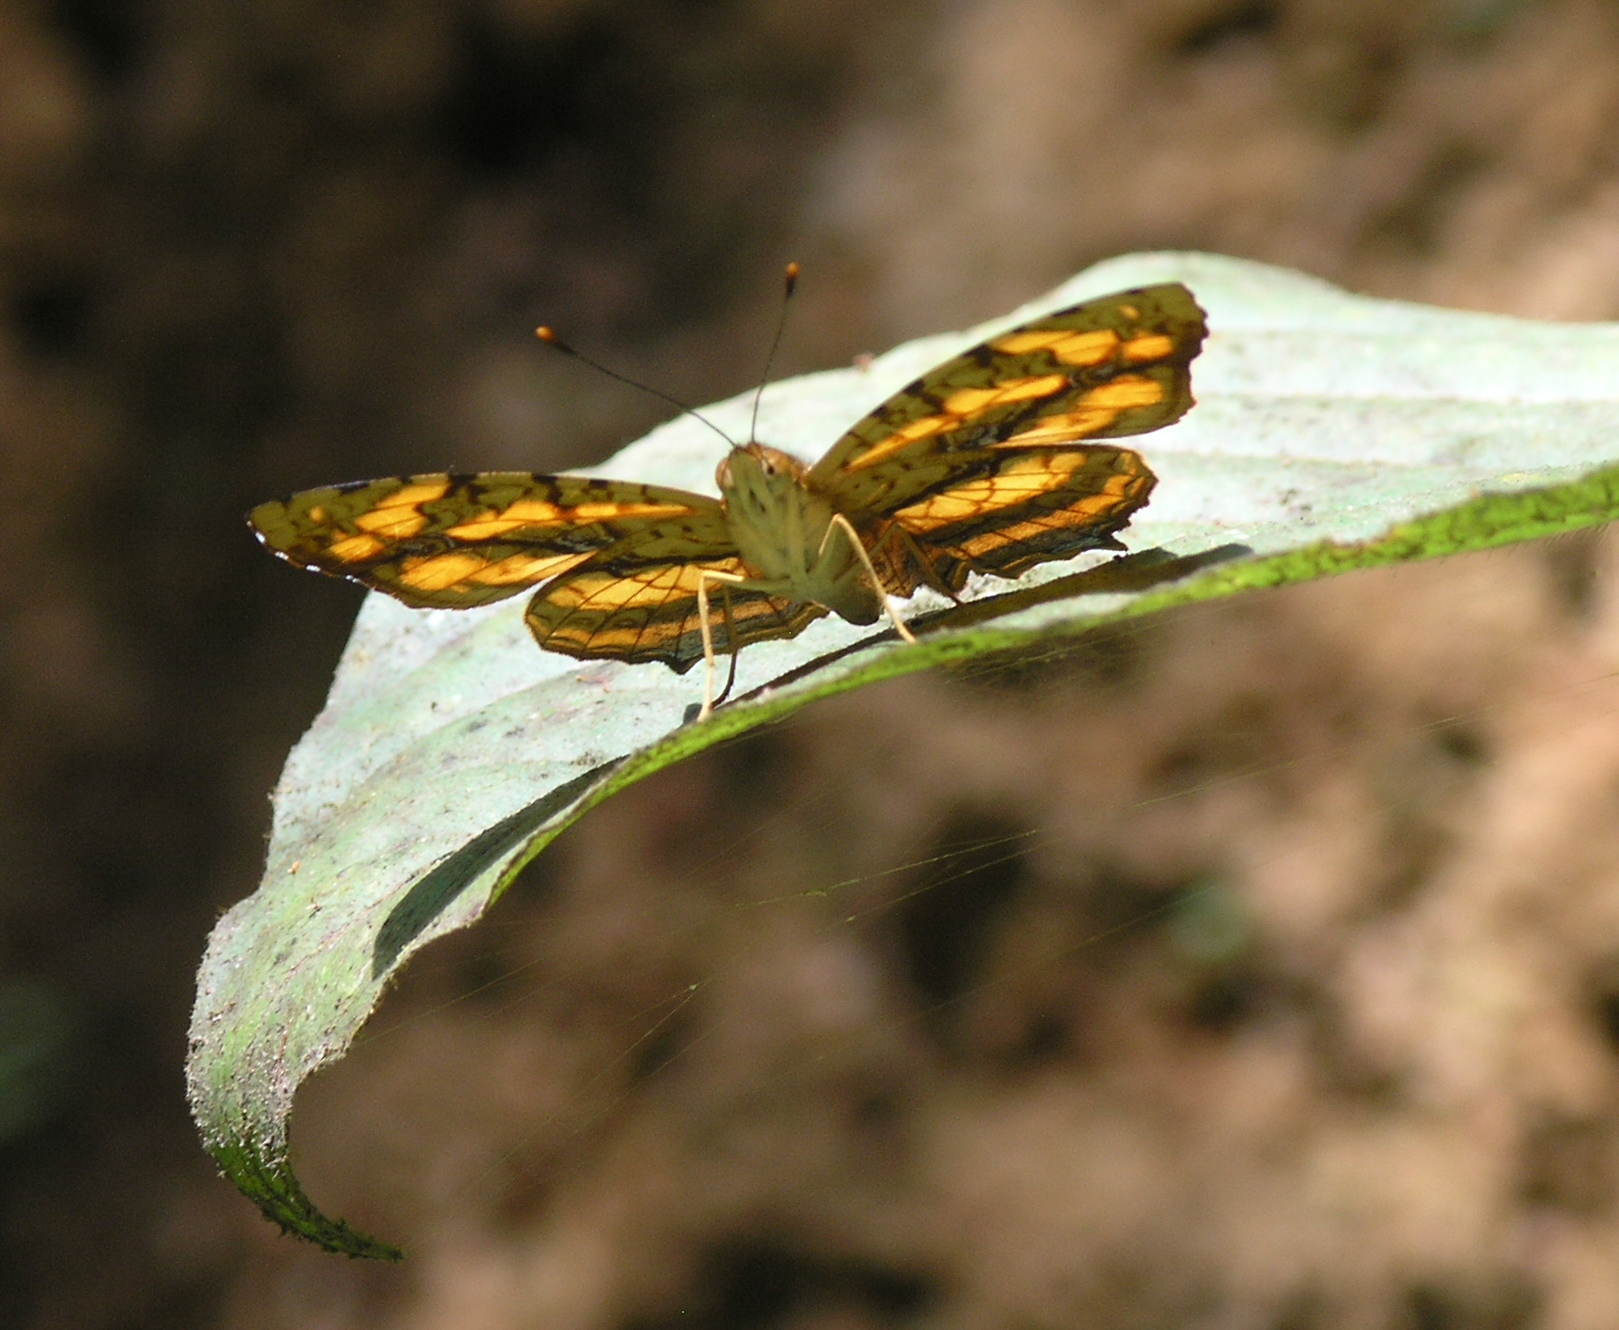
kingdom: Animalia
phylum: Arthropoda
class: Insecta
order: Lepidoptera
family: Nymphalidae
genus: Symbrenthia
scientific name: Symbrenthia hypselis
